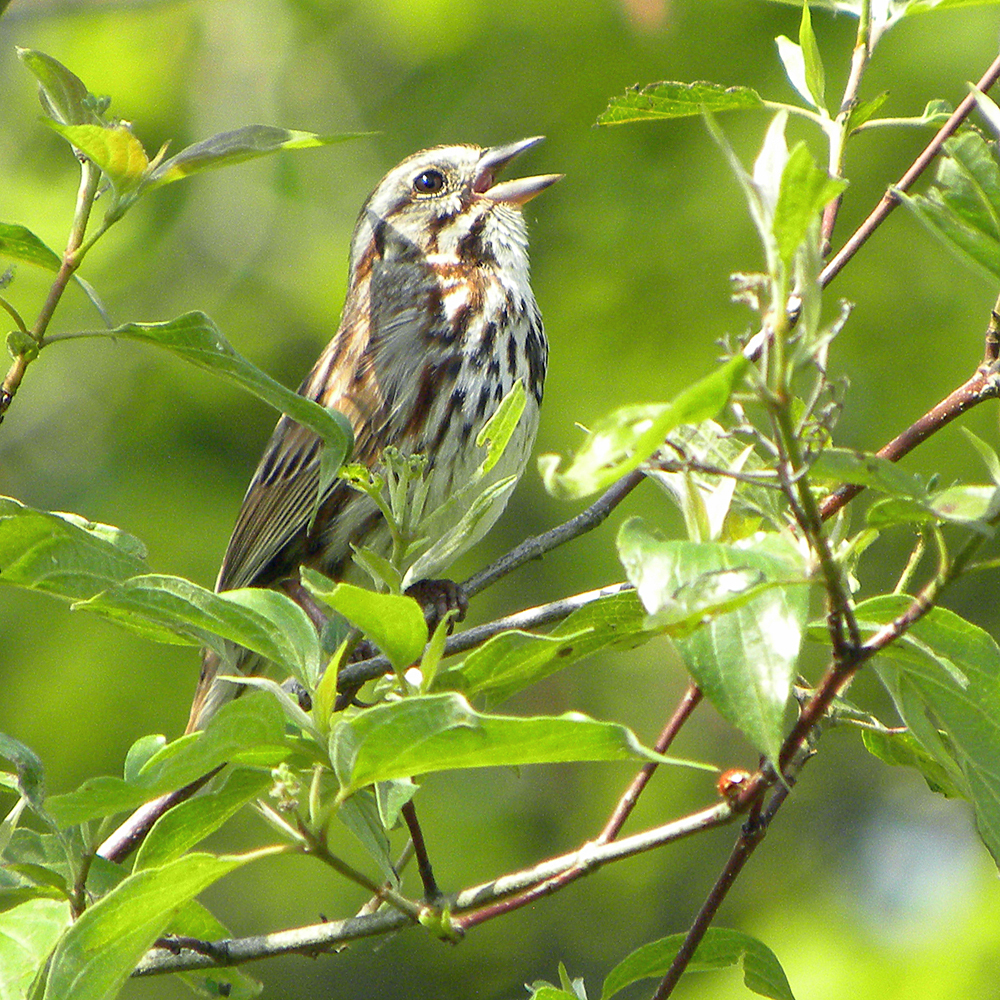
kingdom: Animalia
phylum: Chordata
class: Aves
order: Passeriformes
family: Passerellidae
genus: Melospiza
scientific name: Melospiza melodia
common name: Song sparrow
